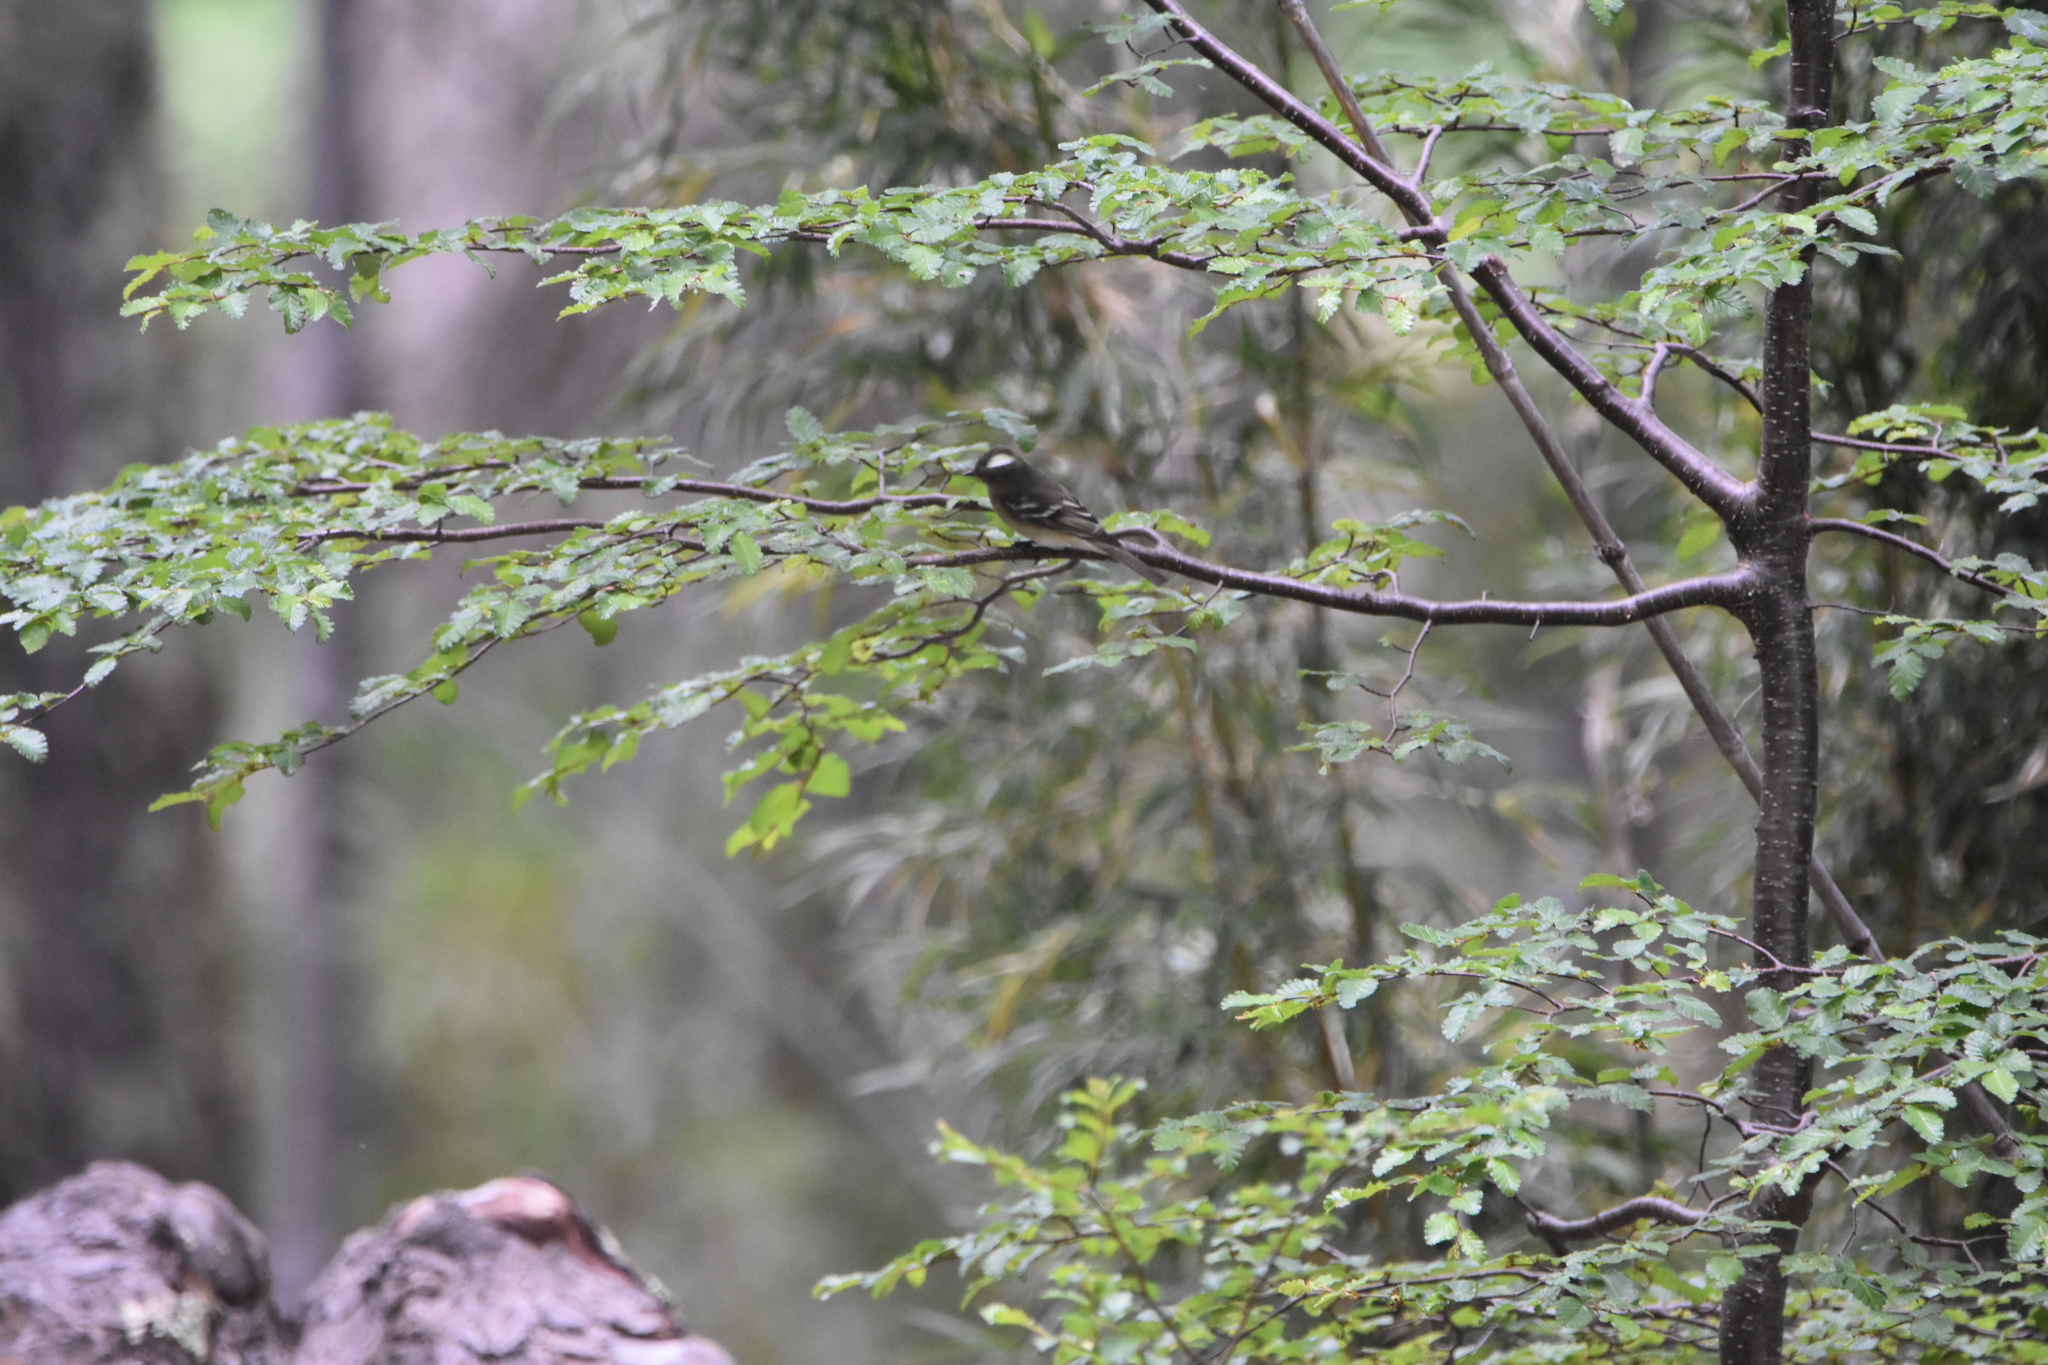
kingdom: Animalia
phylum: Chordata
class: Aves
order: Passeriformes
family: Tyrannidae
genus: Elaenia
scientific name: Elaenia albiceps
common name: White-crested elaenia
